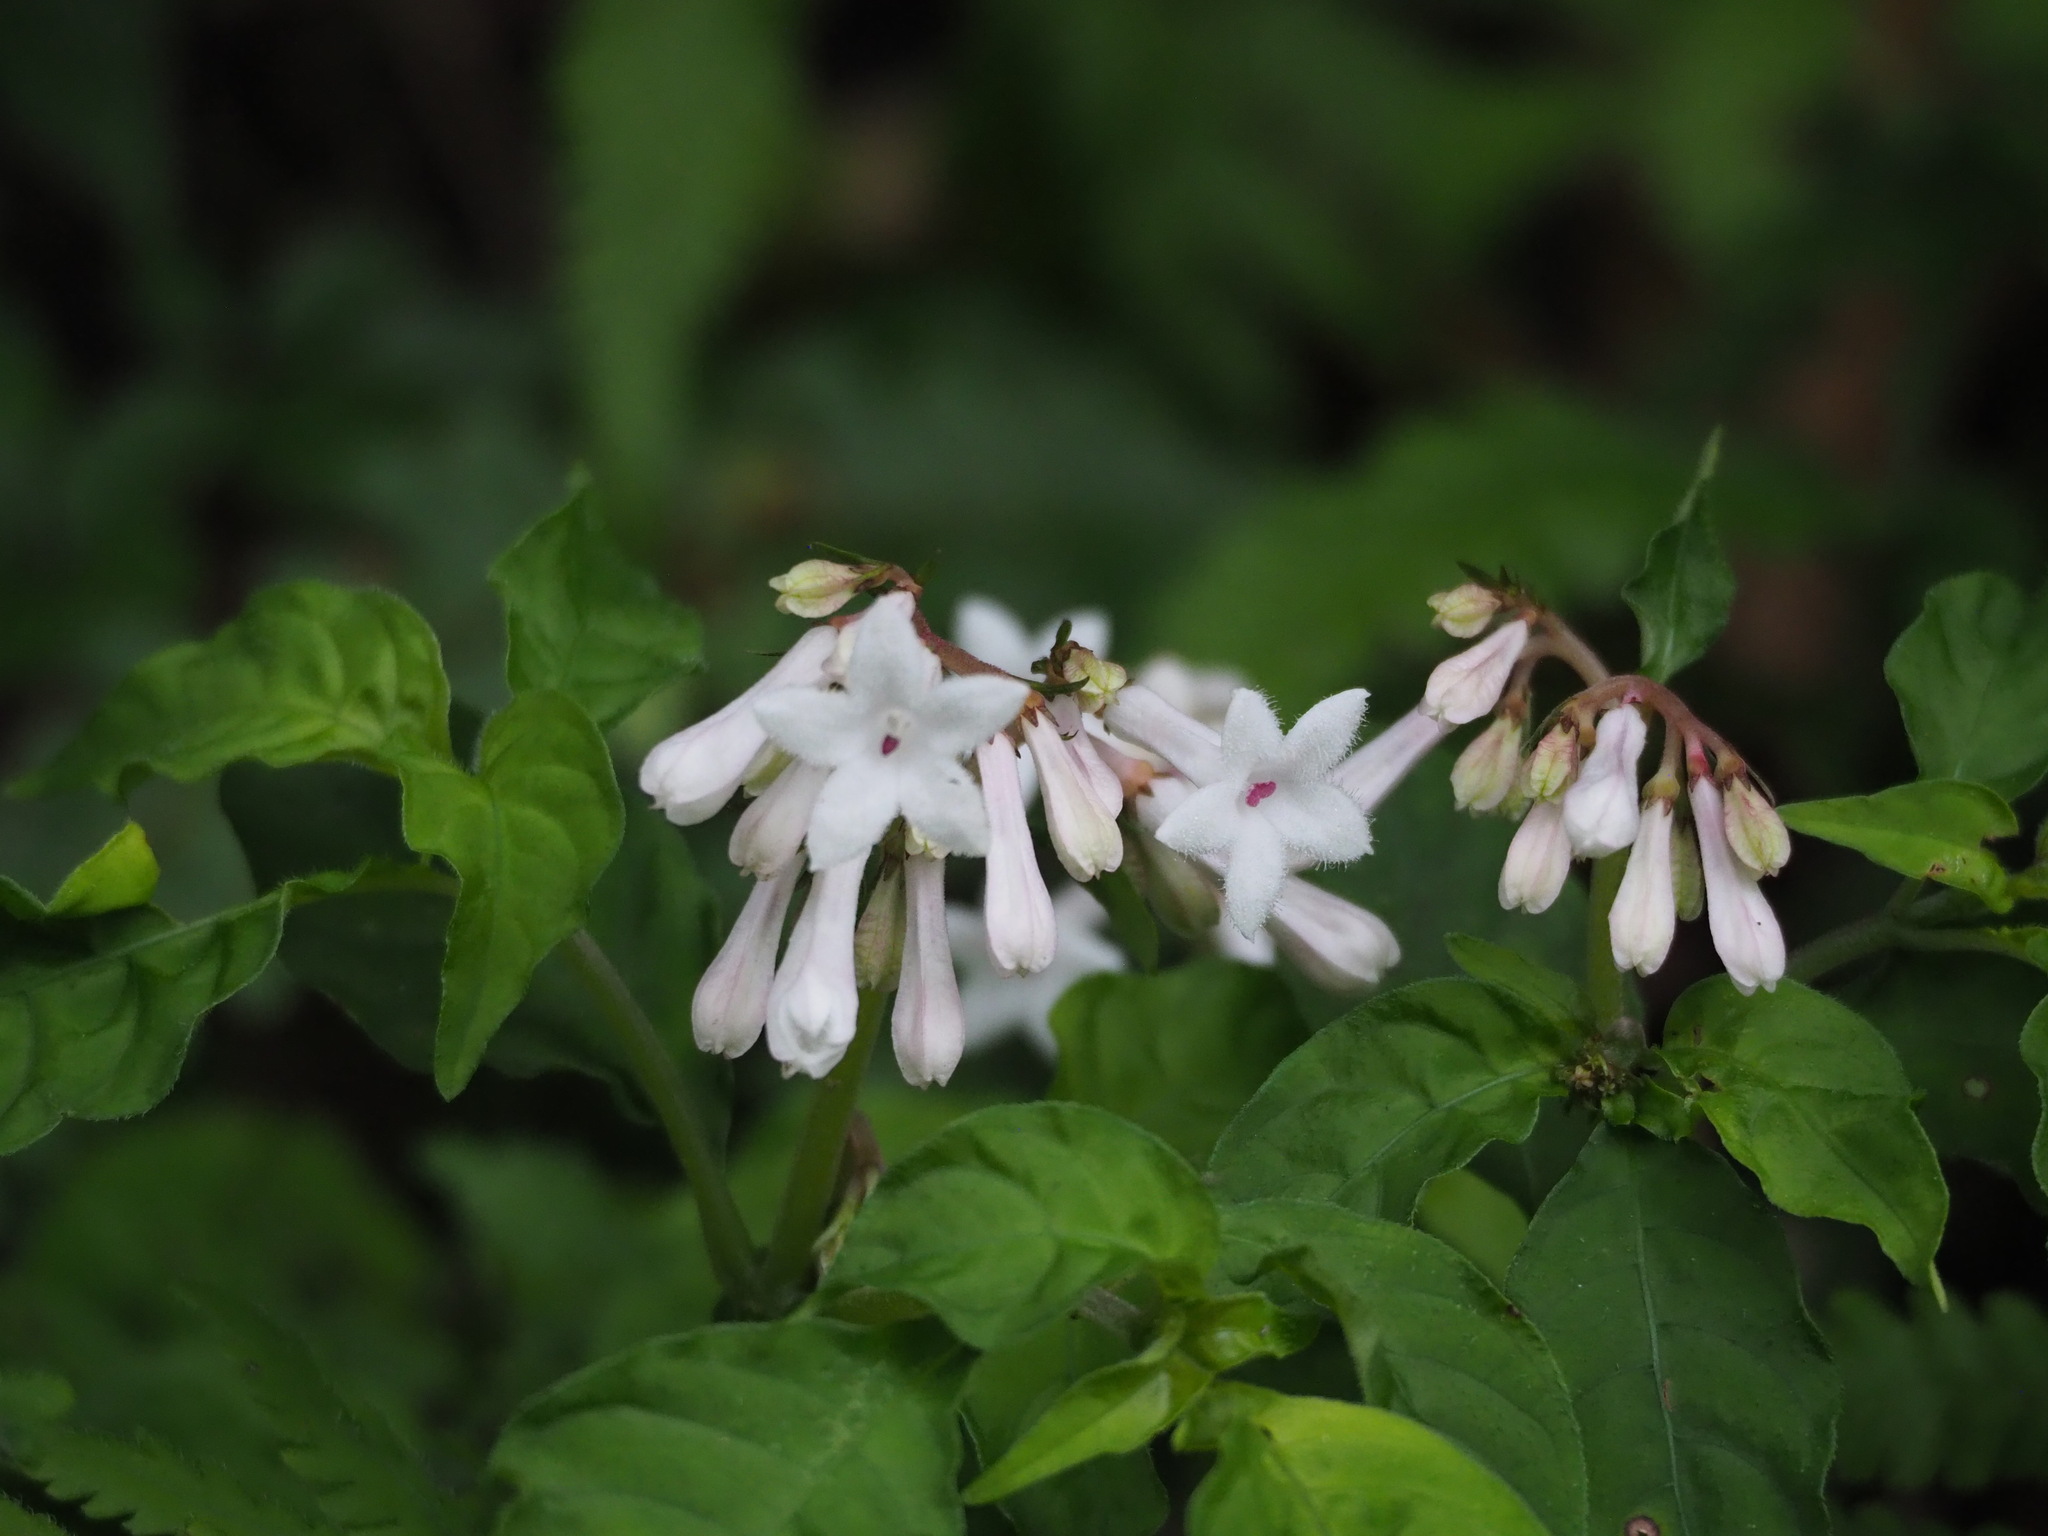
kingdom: Plantae
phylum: Tracheophyta
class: Magnoliopsida
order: Gentianales
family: Rubiaceae
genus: Ophiorrhiza
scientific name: Ophiorrhiza japonica
